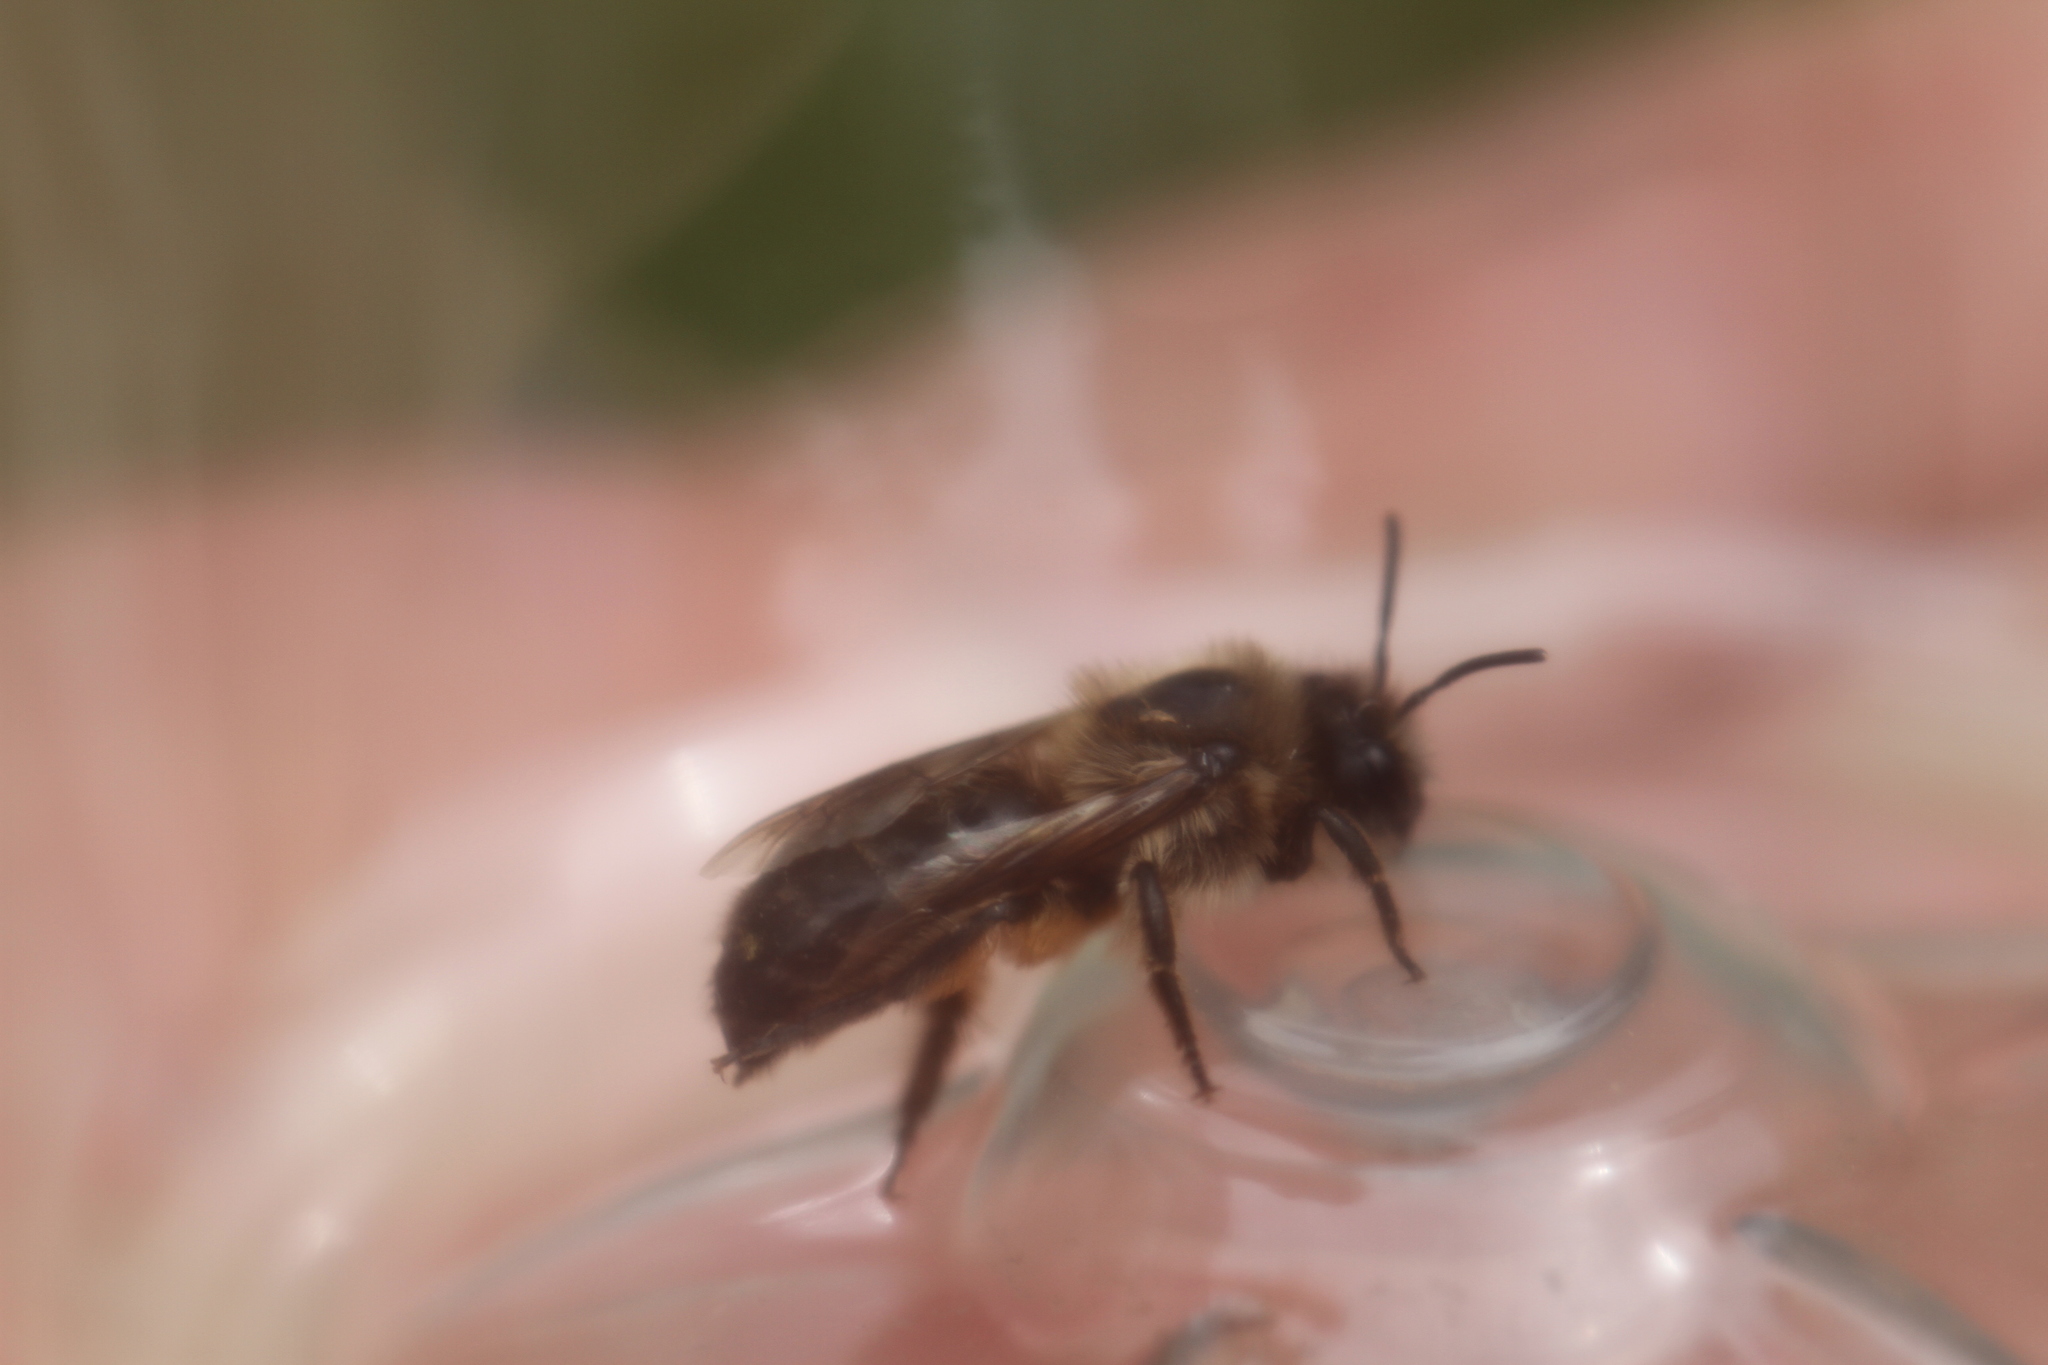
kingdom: Animalia
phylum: Arthropoda
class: Insecta
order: Hymenoptera
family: Colletidae
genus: Colletes
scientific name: Colletes cunicularius
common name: Early colletes
